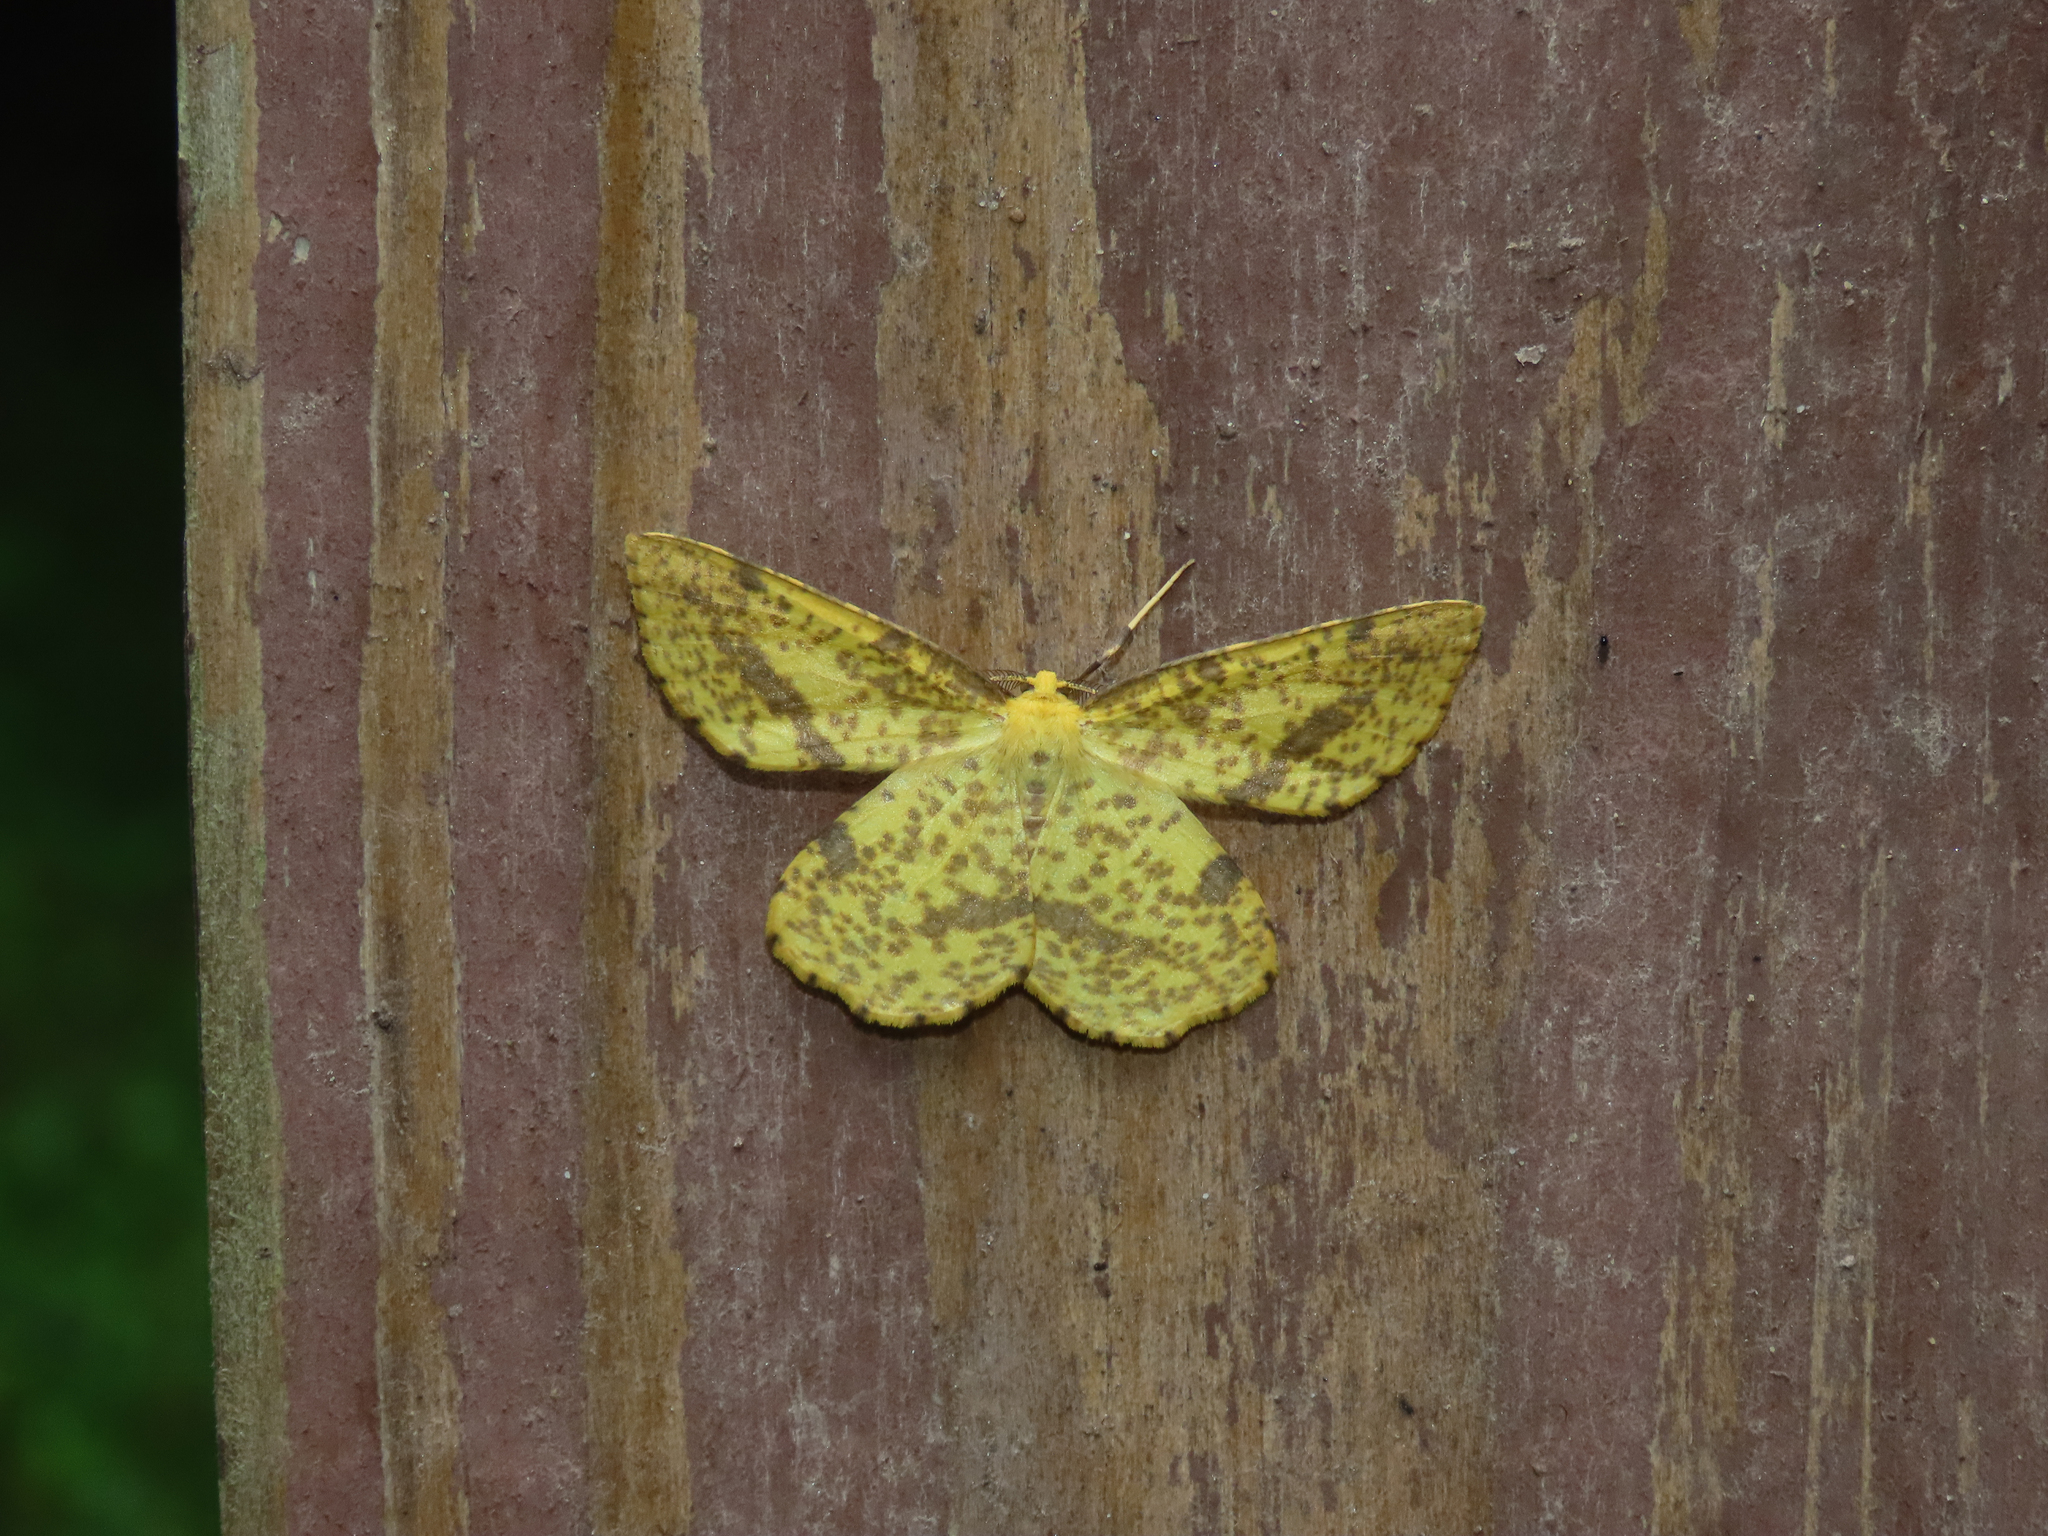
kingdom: Animalia
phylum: Arthropoda
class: Insecta
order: Lepidoptera
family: Geometridae
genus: Xanthotype
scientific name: Xanthotype
